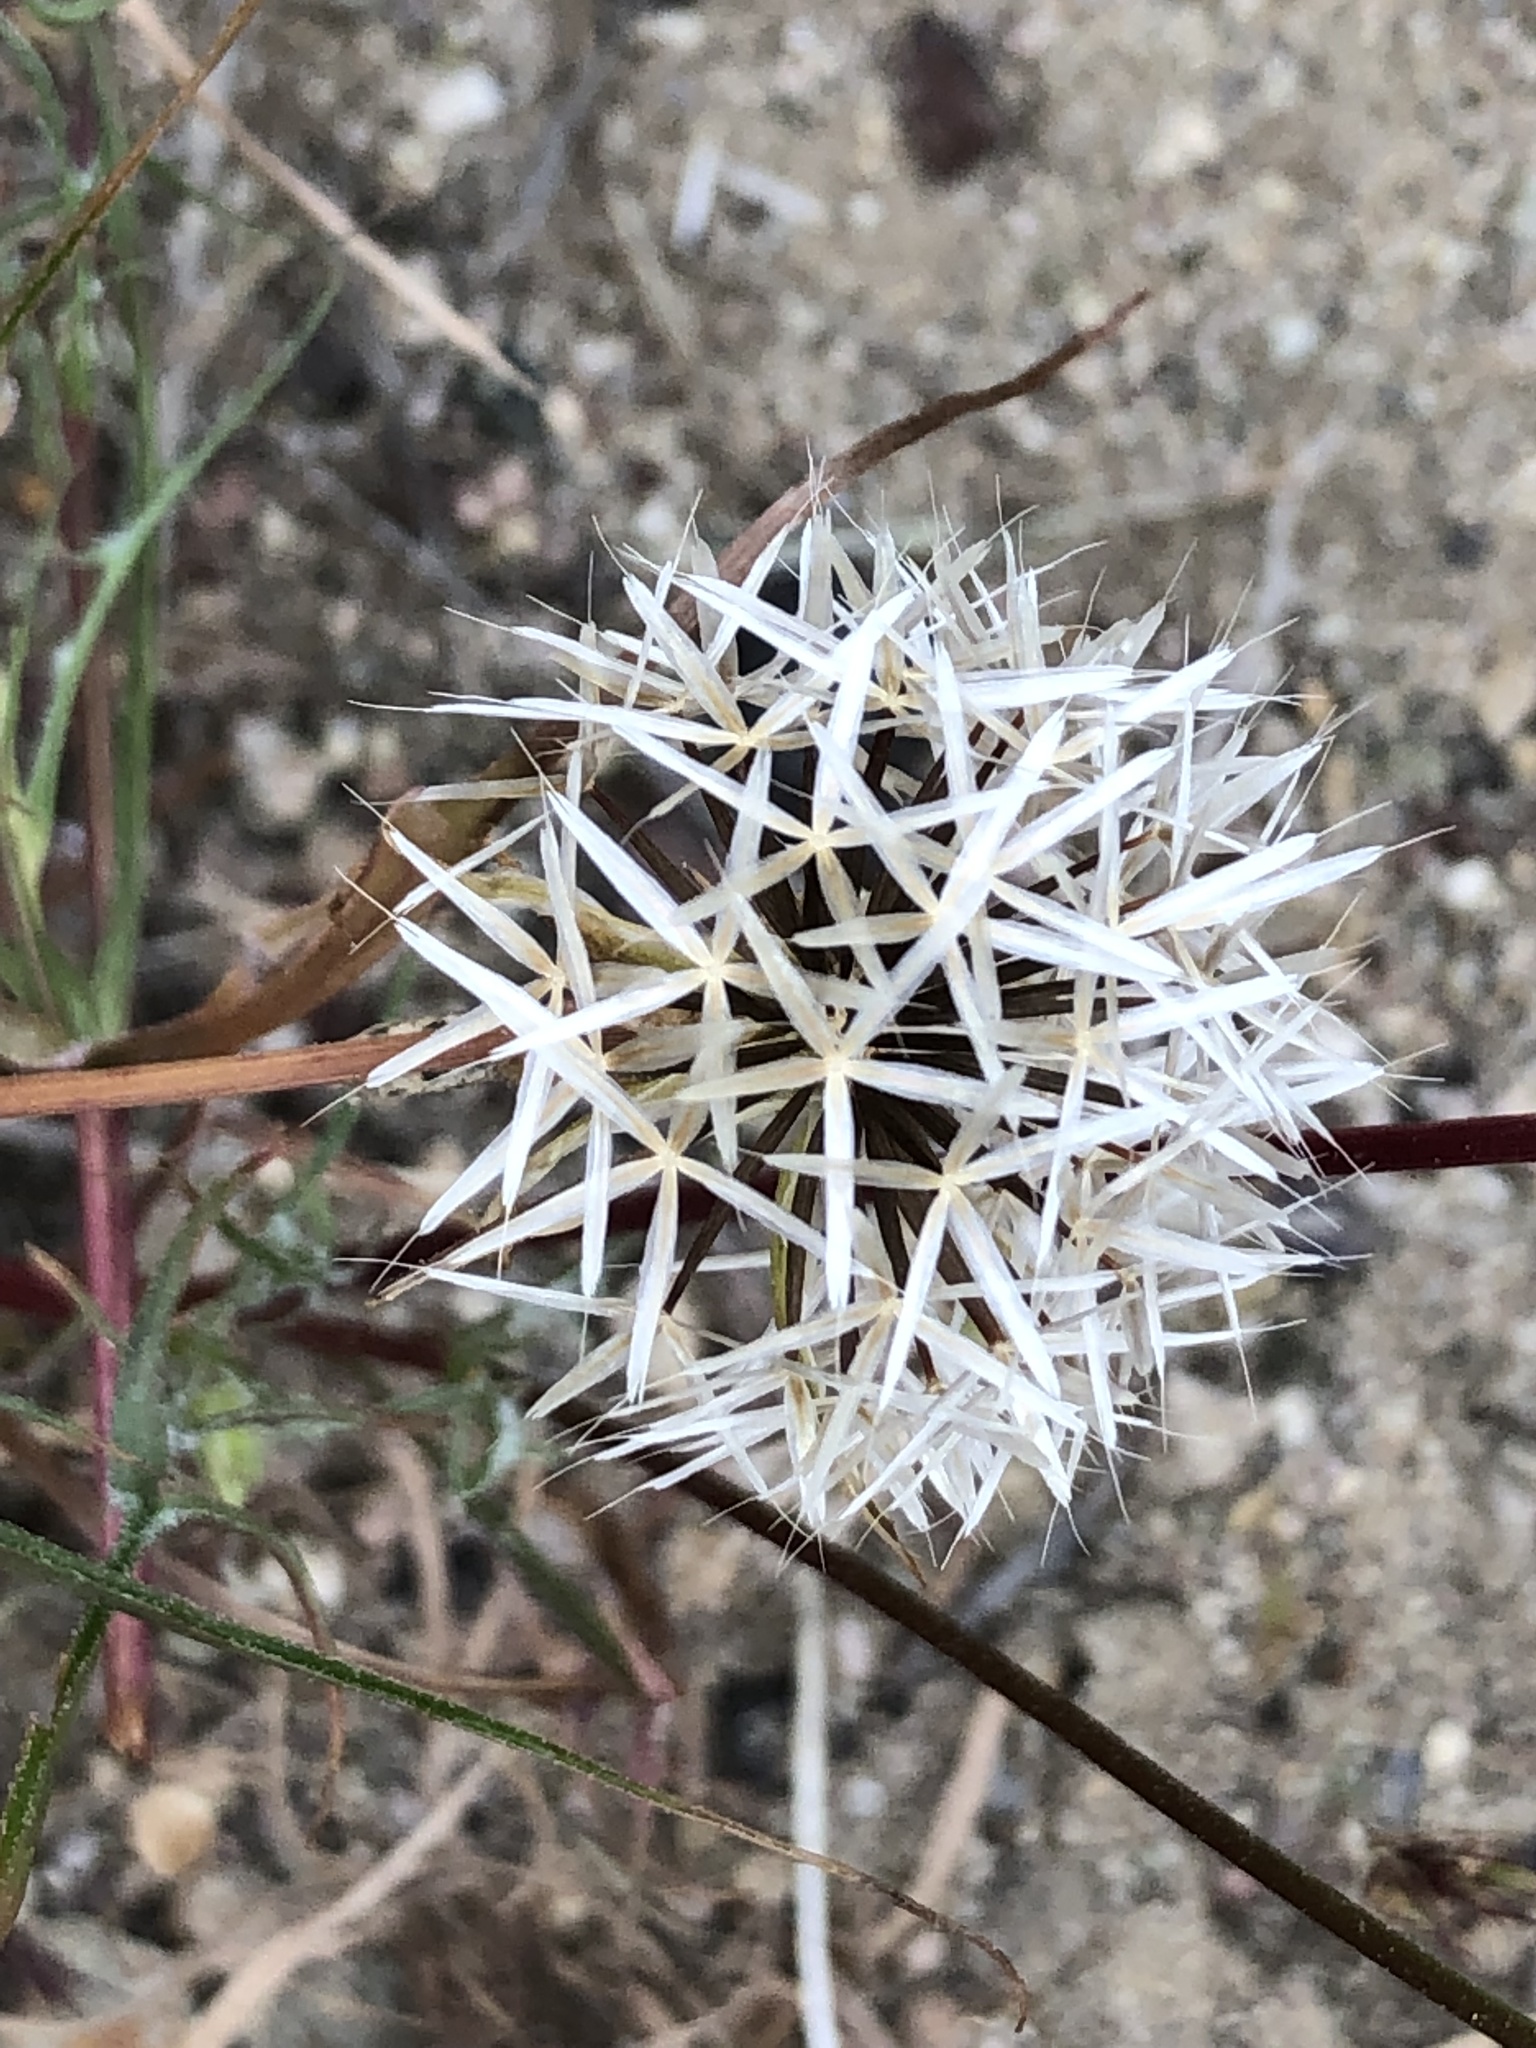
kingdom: Plantae
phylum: Tracheophyta
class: Magnoliopsida
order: Asterales
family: Asteraceae
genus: Microseris
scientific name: Microseris lindleyi
